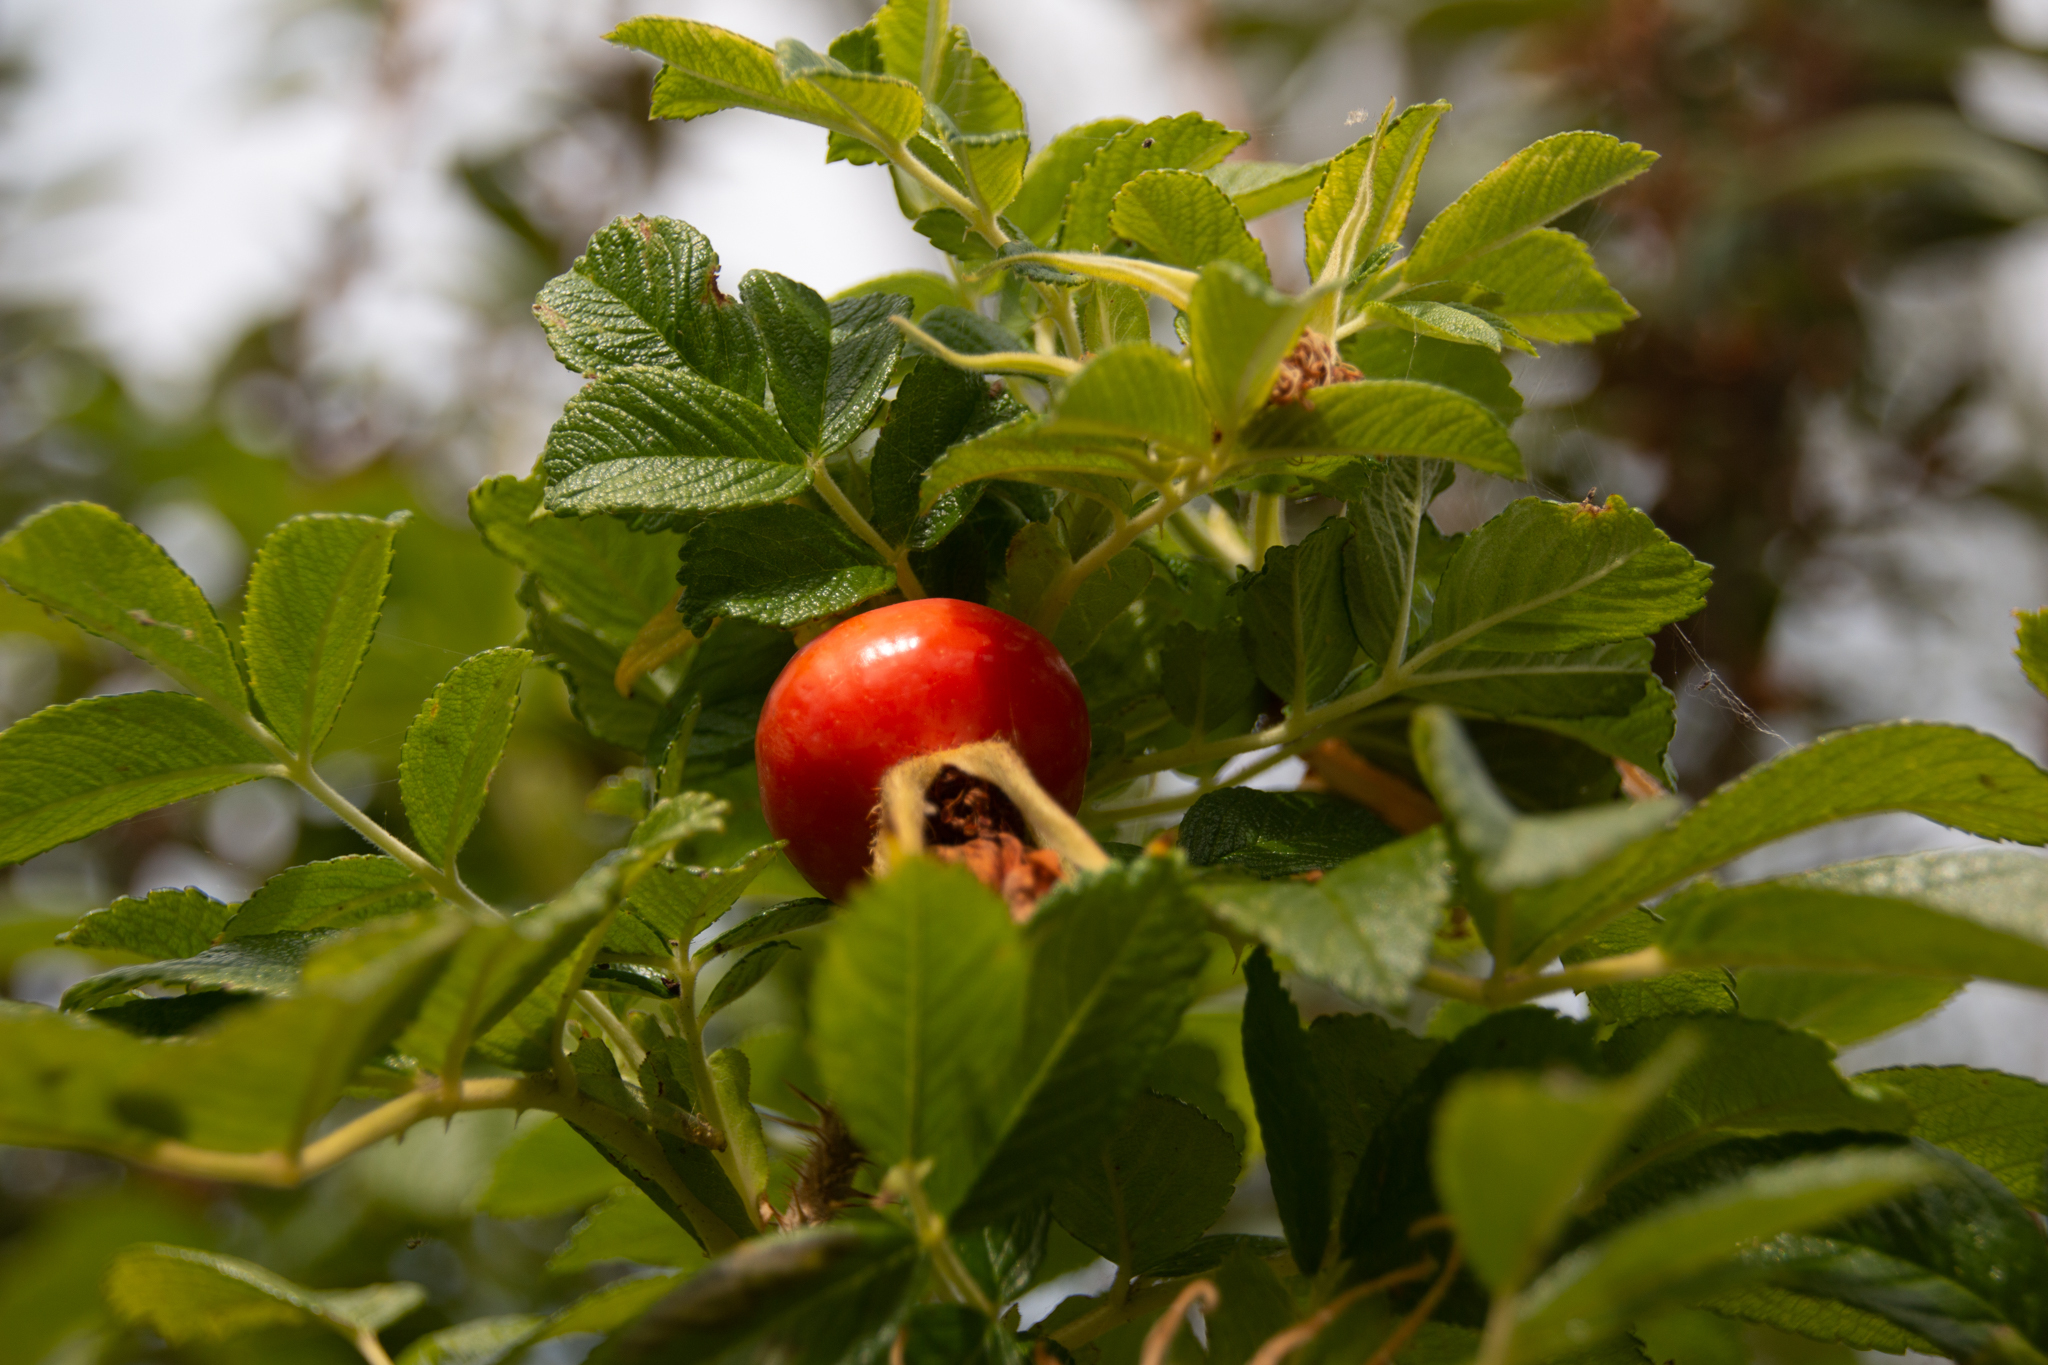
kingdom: Plantae
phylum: Tracheophyta
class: Magnoliopsida
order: Rosales
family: Rosaceae
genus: Rosa
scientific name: Rosa rugosa
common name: Japanese rose
